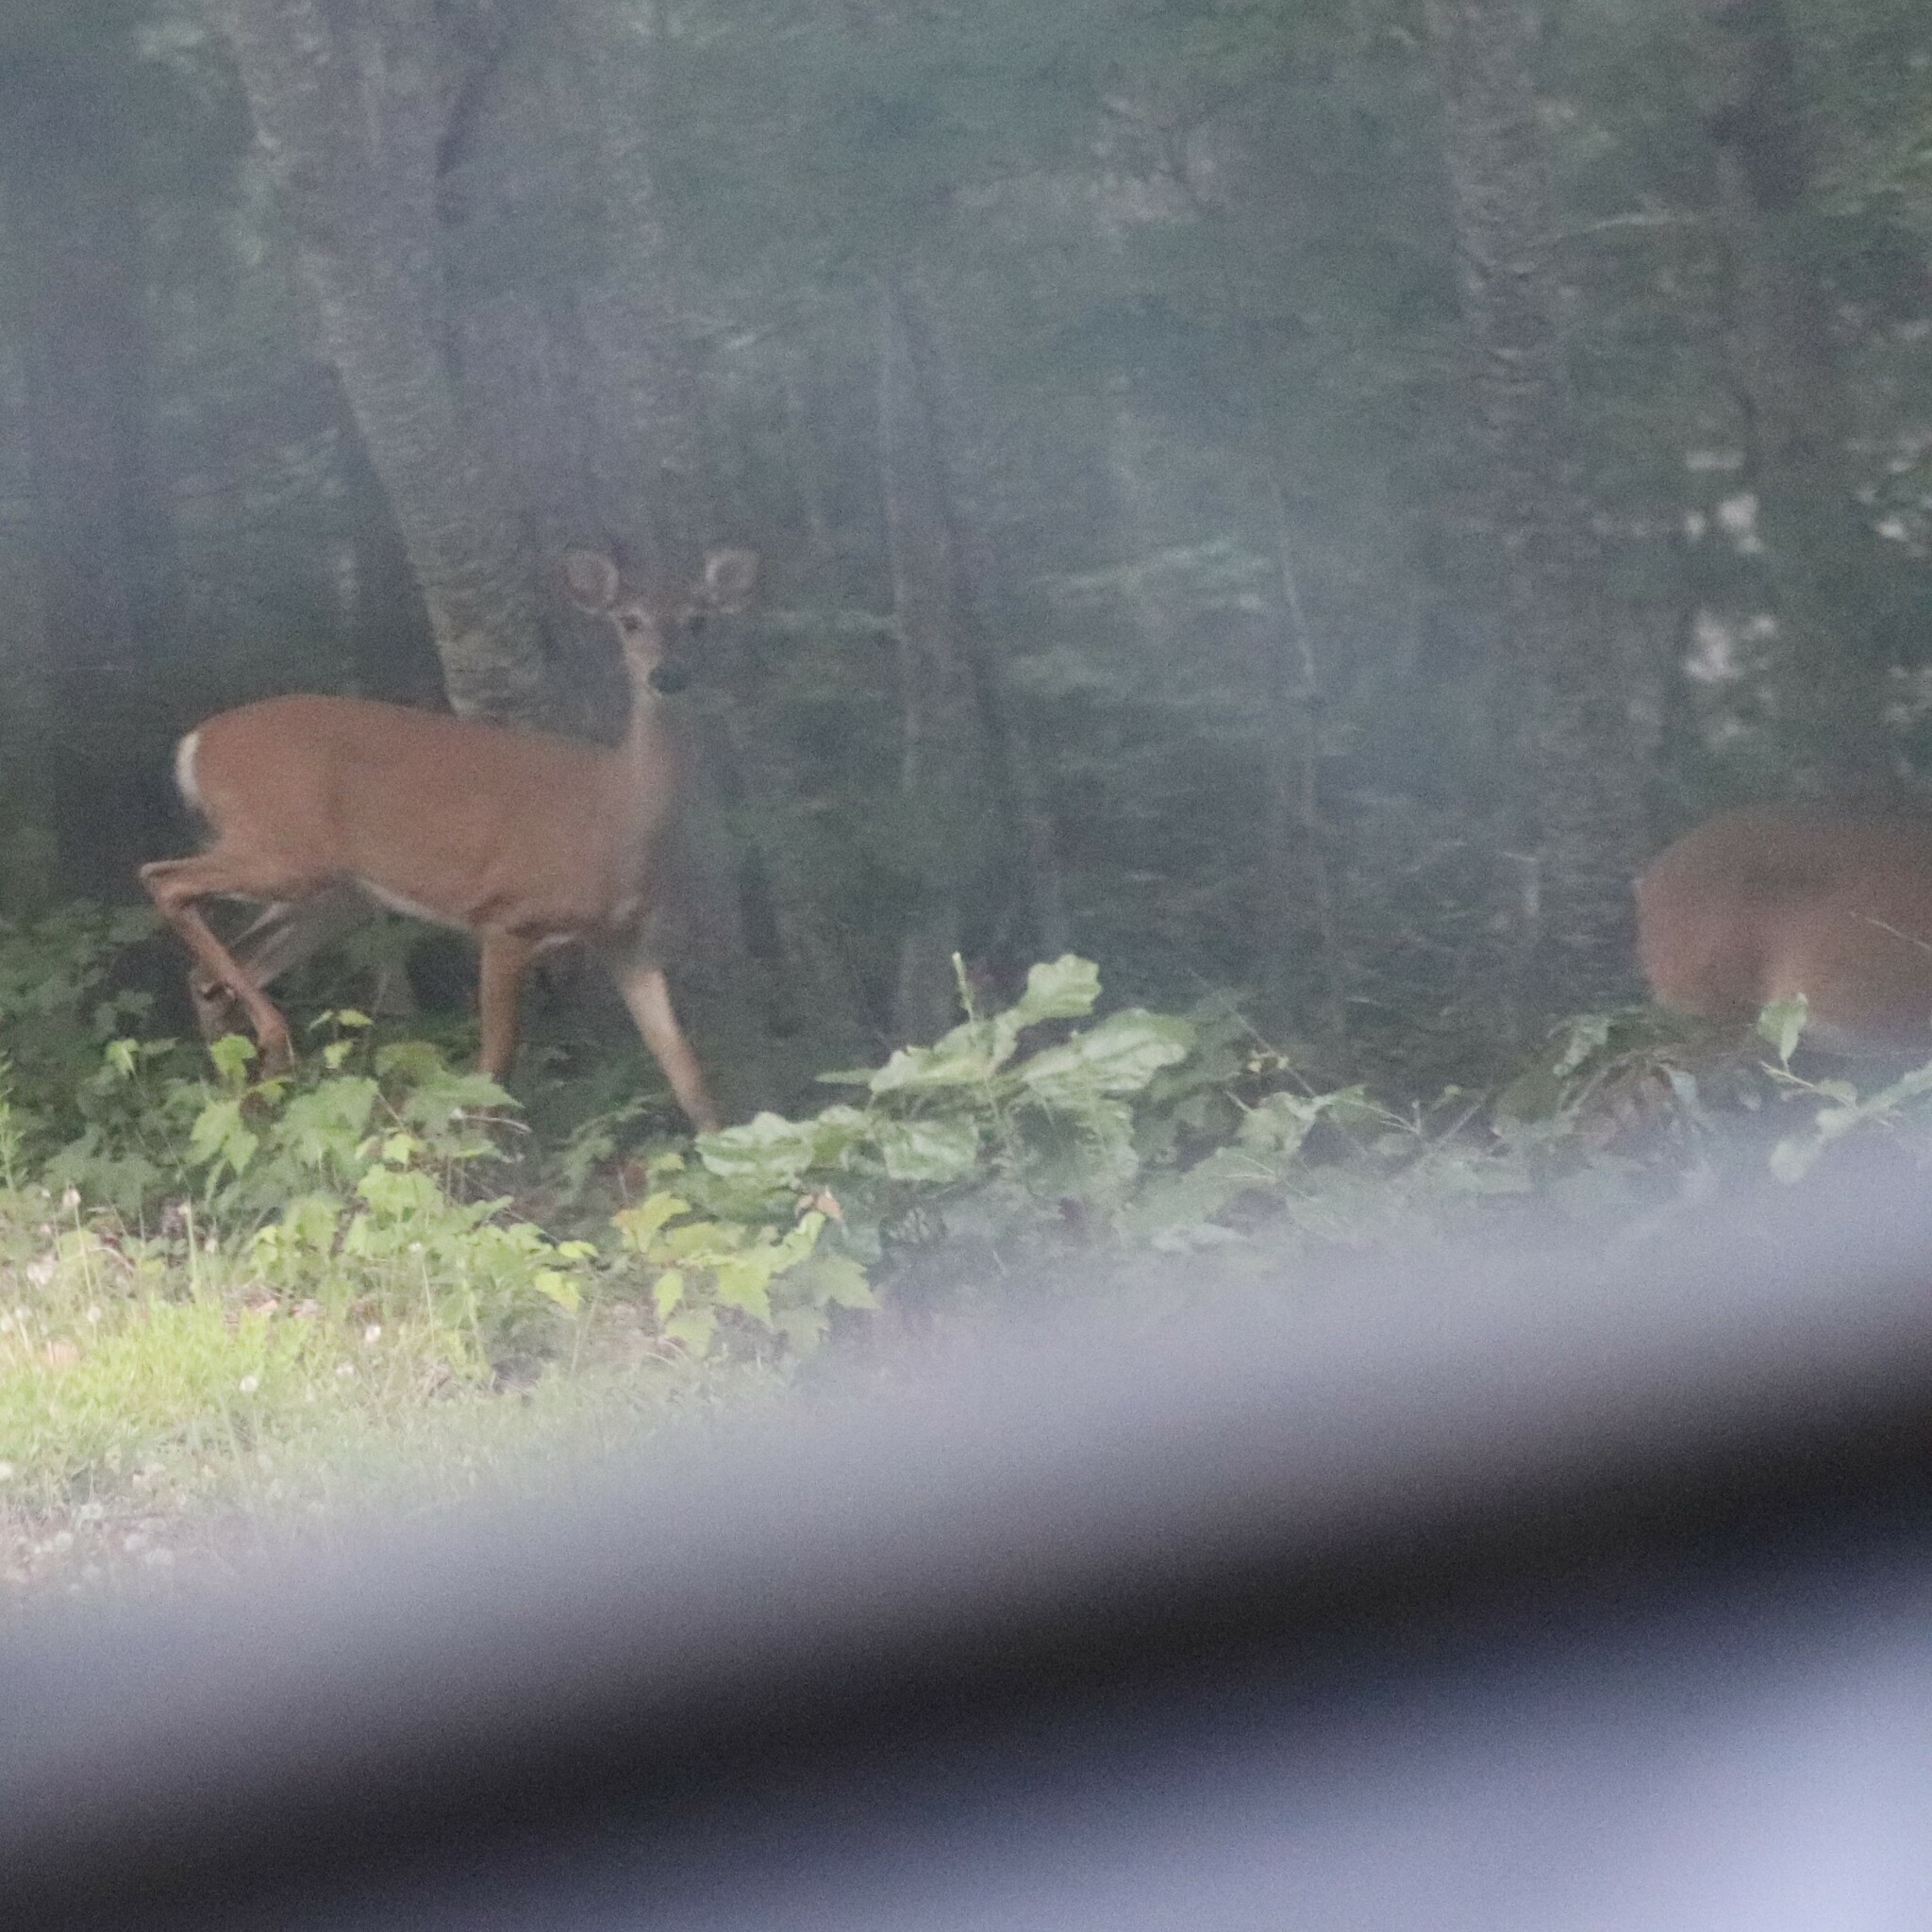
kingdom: Animalia
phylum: Chordata
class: Mammalia
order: Artiodactyla
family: Cervidae
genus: Odocoileus
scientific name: Odocoileus virginianus
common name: White-tailed deer
